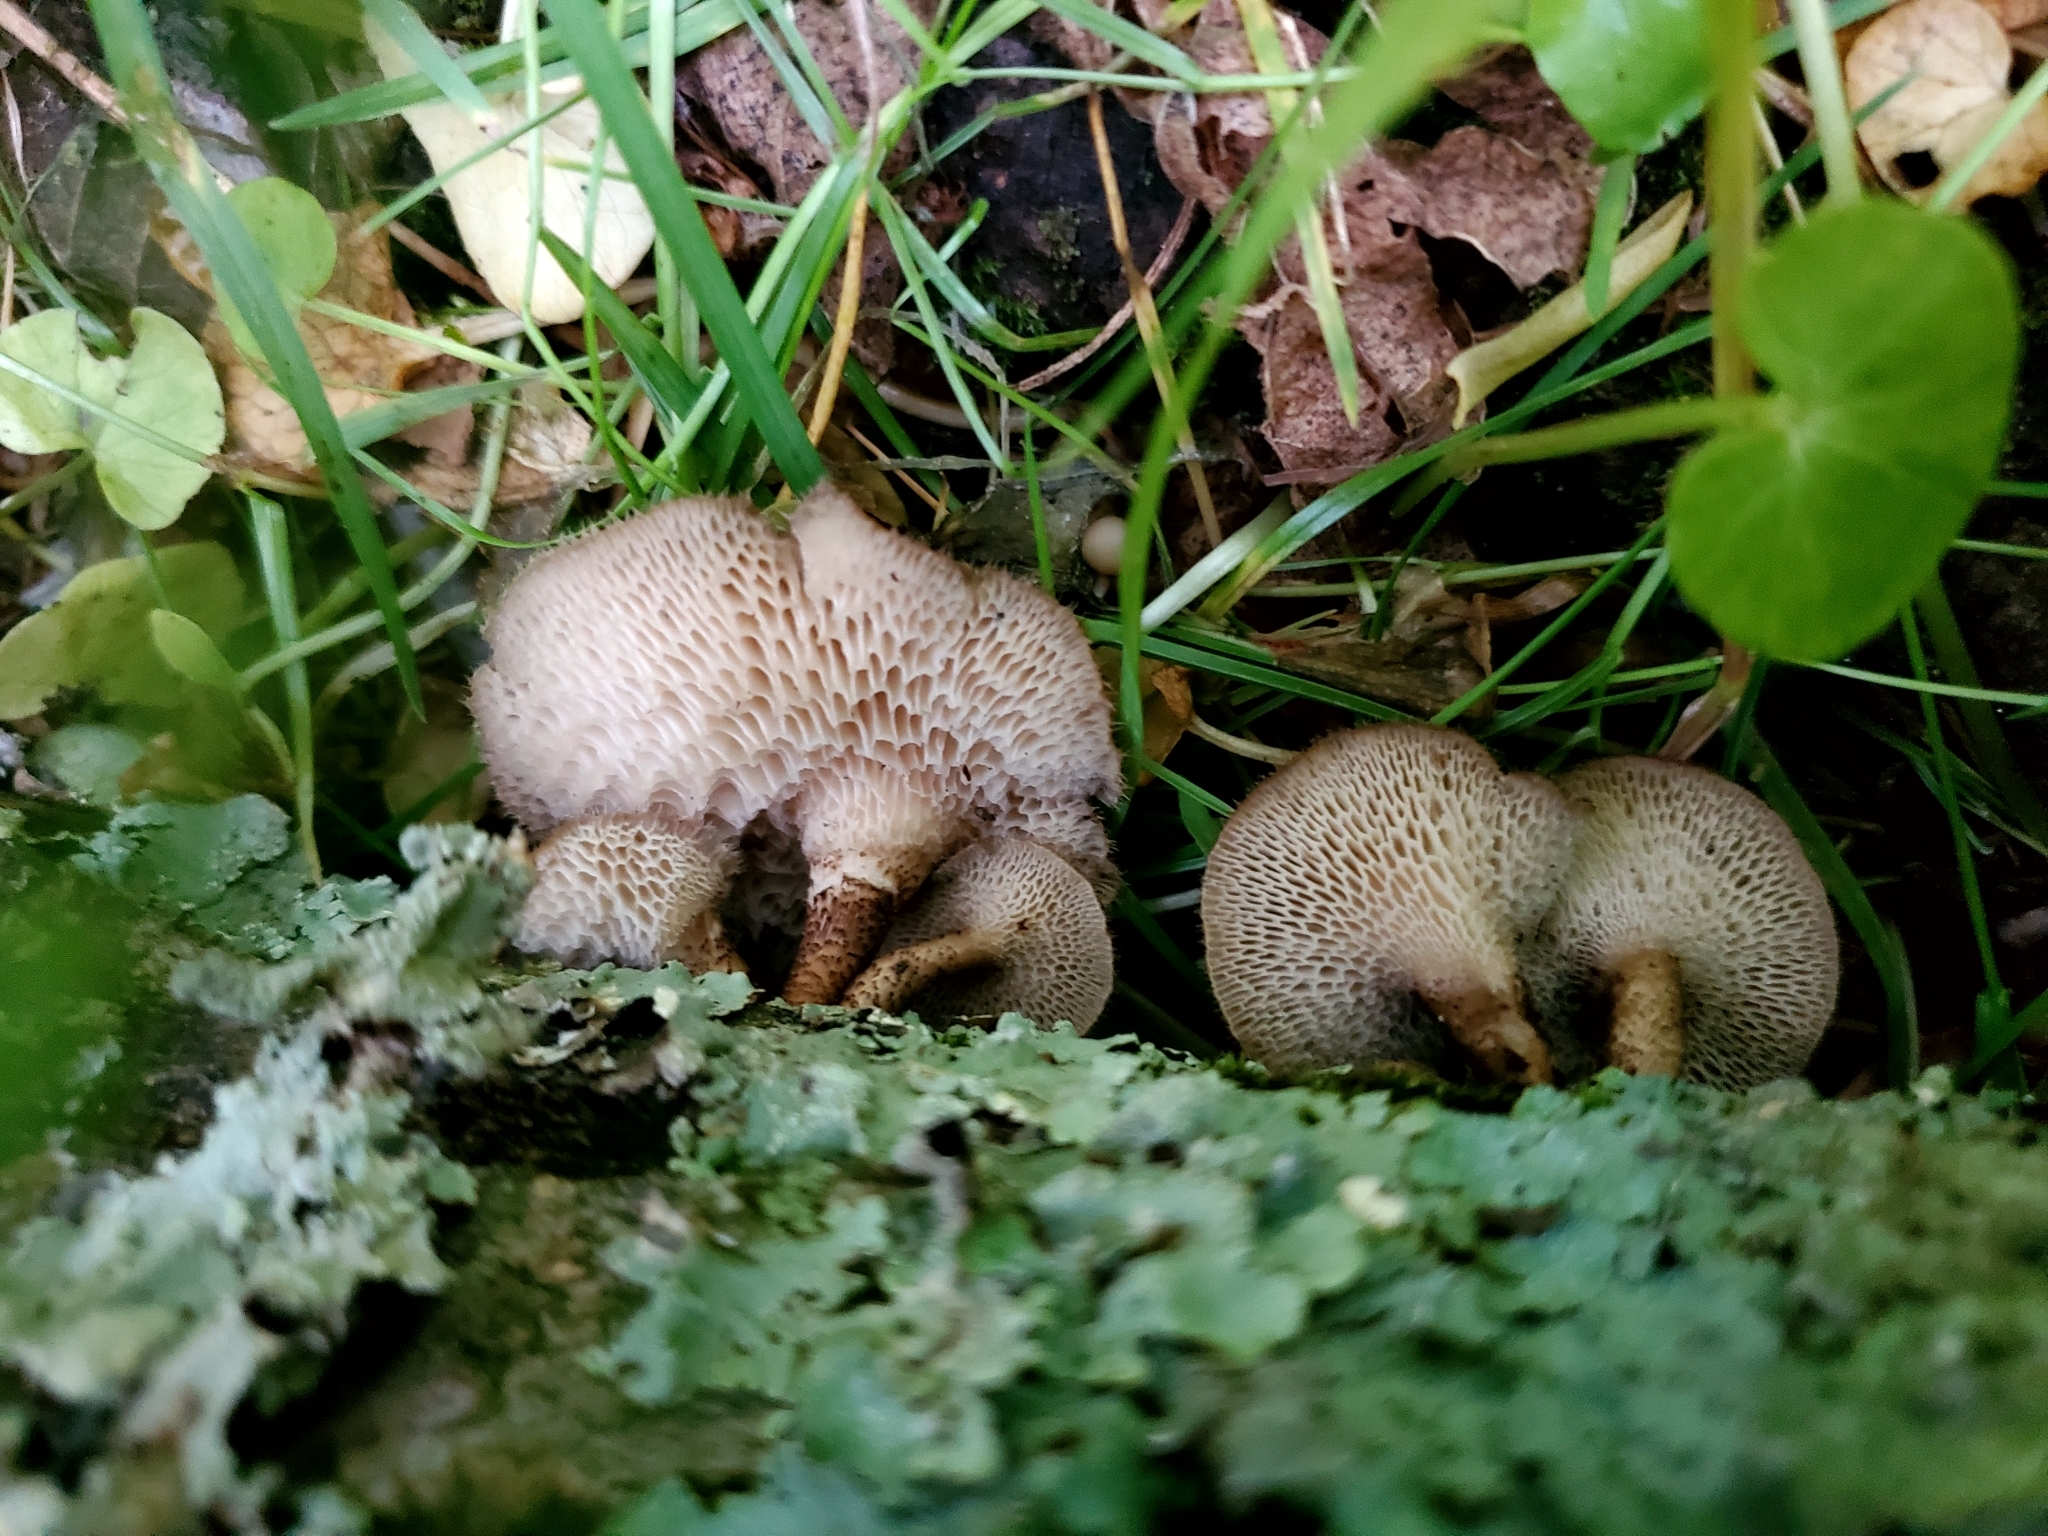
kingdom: Fungi
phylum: Basidiomycota
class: Agaricomycetes
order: Polyporales
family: Polyporaceae
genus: Lentinus
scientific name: Lentinus arcularius
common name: Spring polypore
